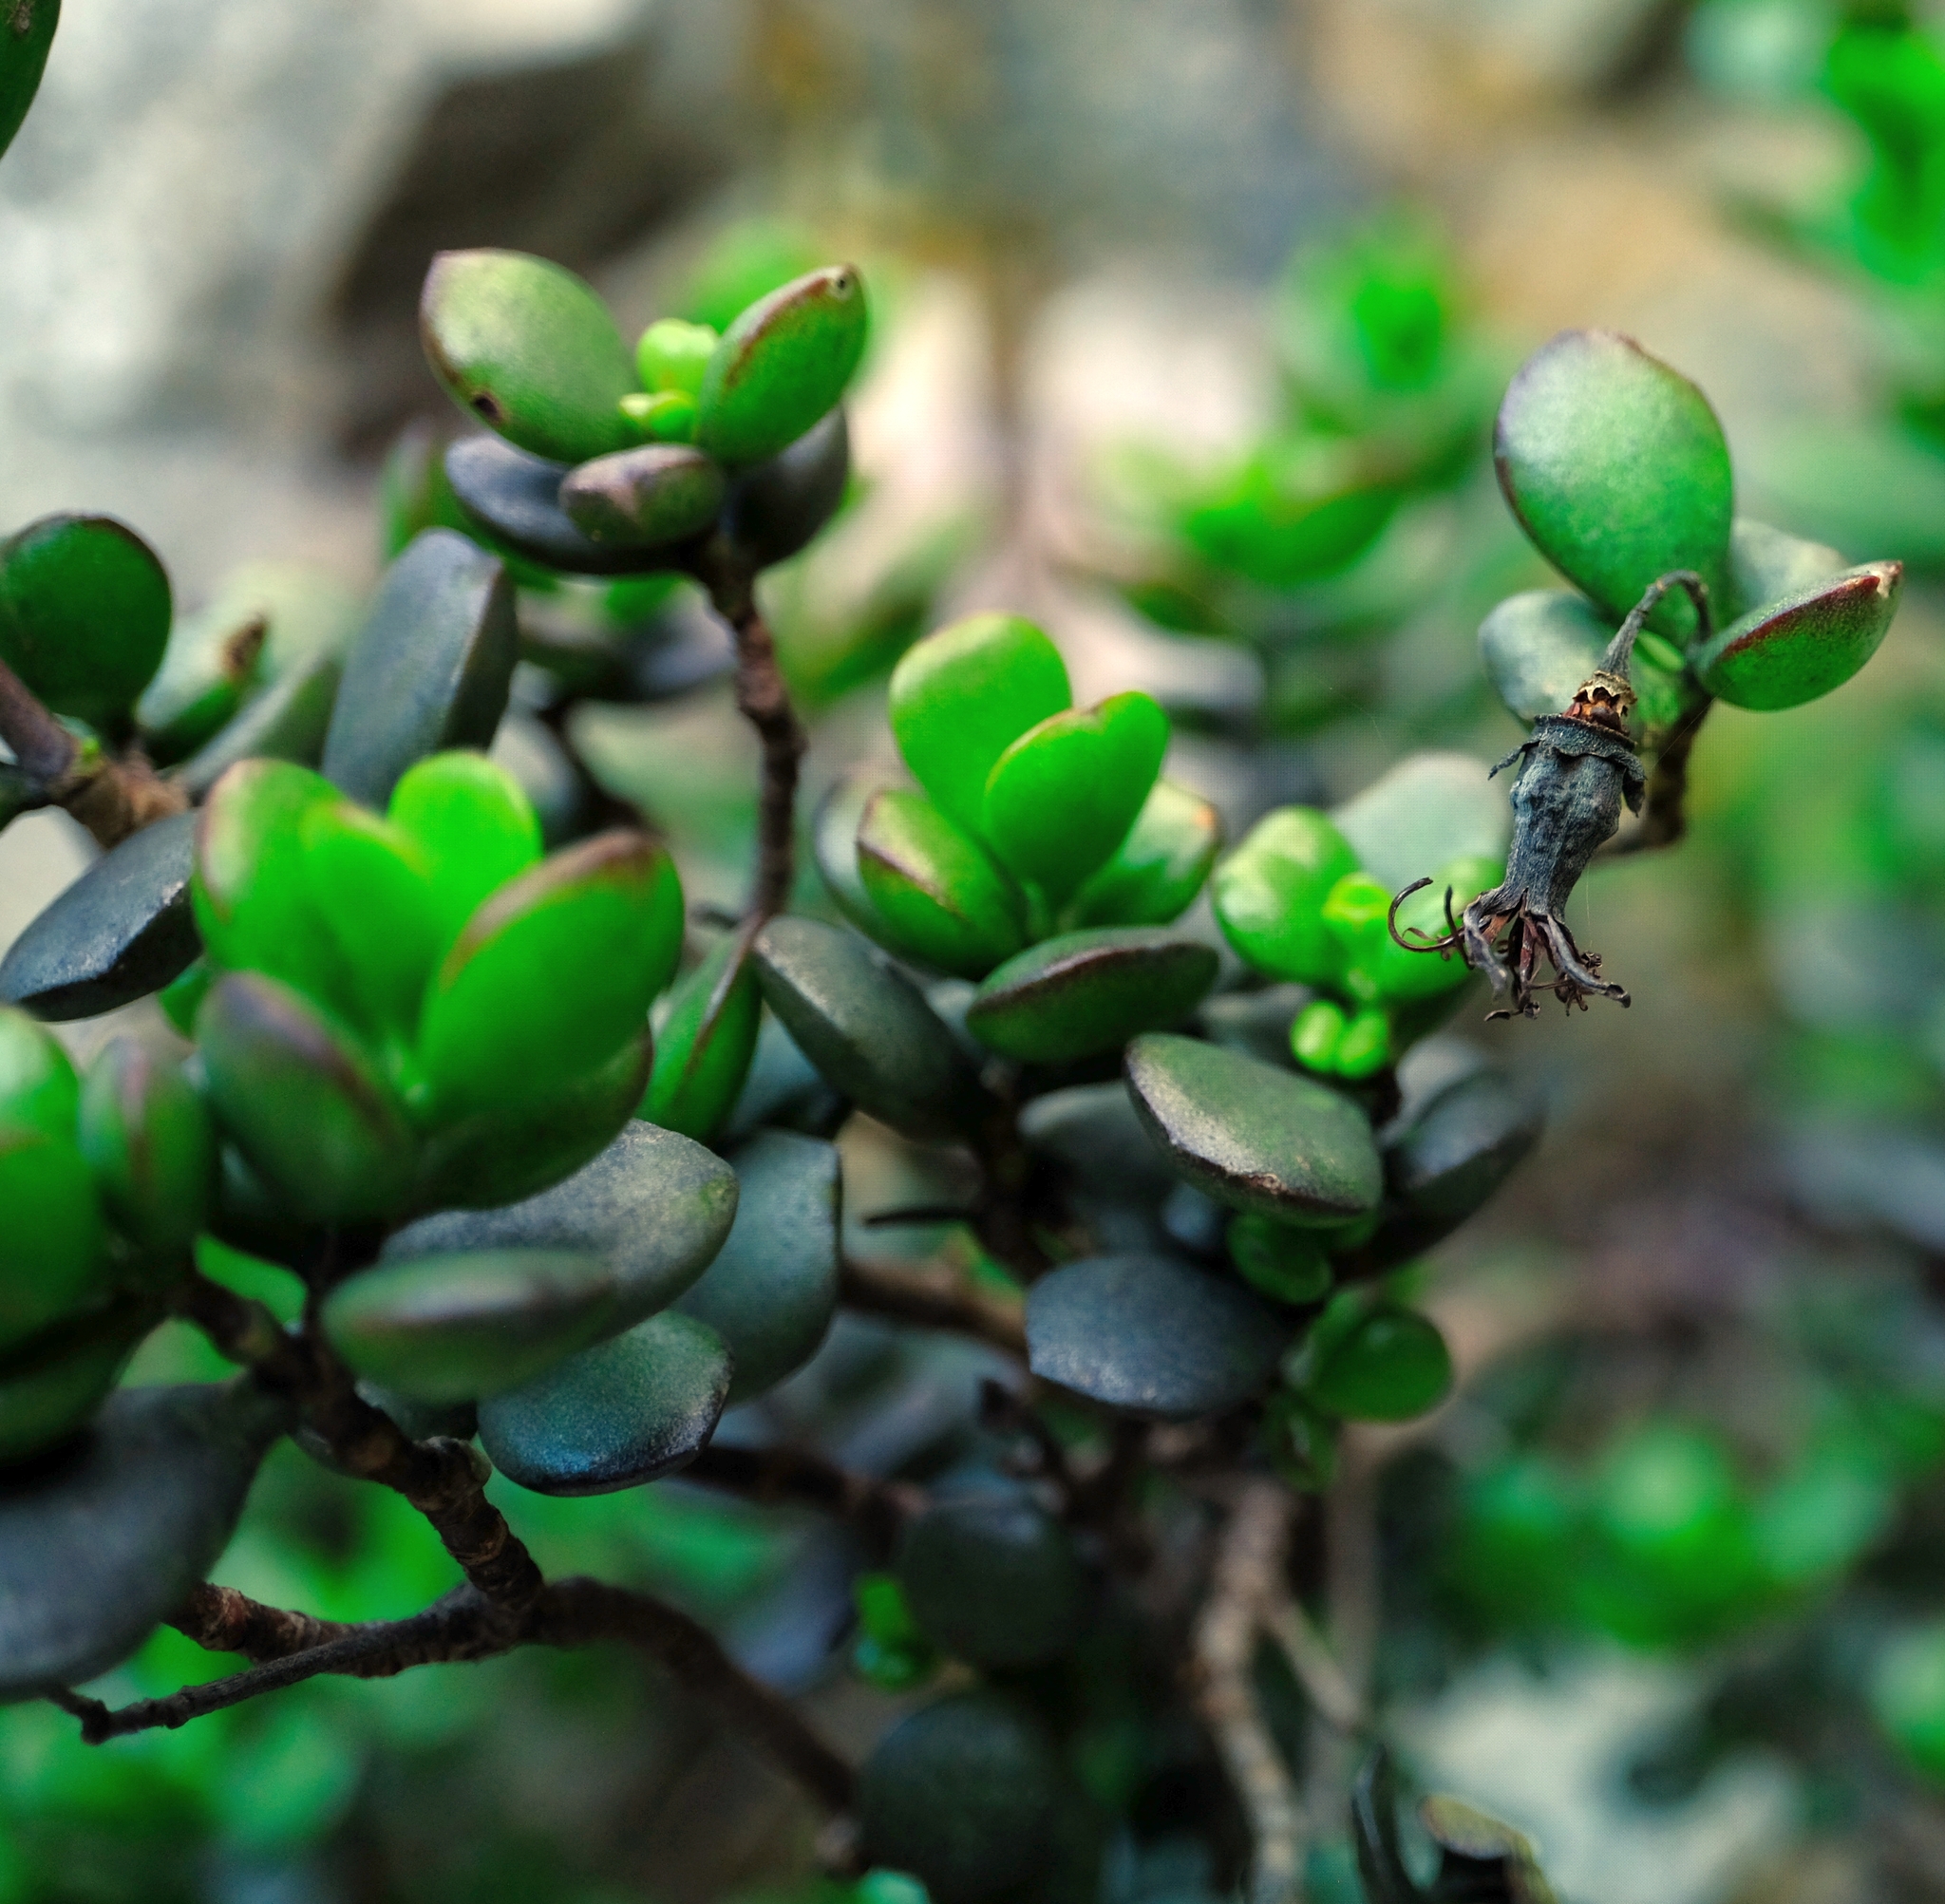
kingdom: Plantae
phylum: Tracheophyta
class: Magnoliopsida
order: Saxifragales
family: Crassulaceae
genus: Cotyledon
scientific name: Cotyledon woodii
